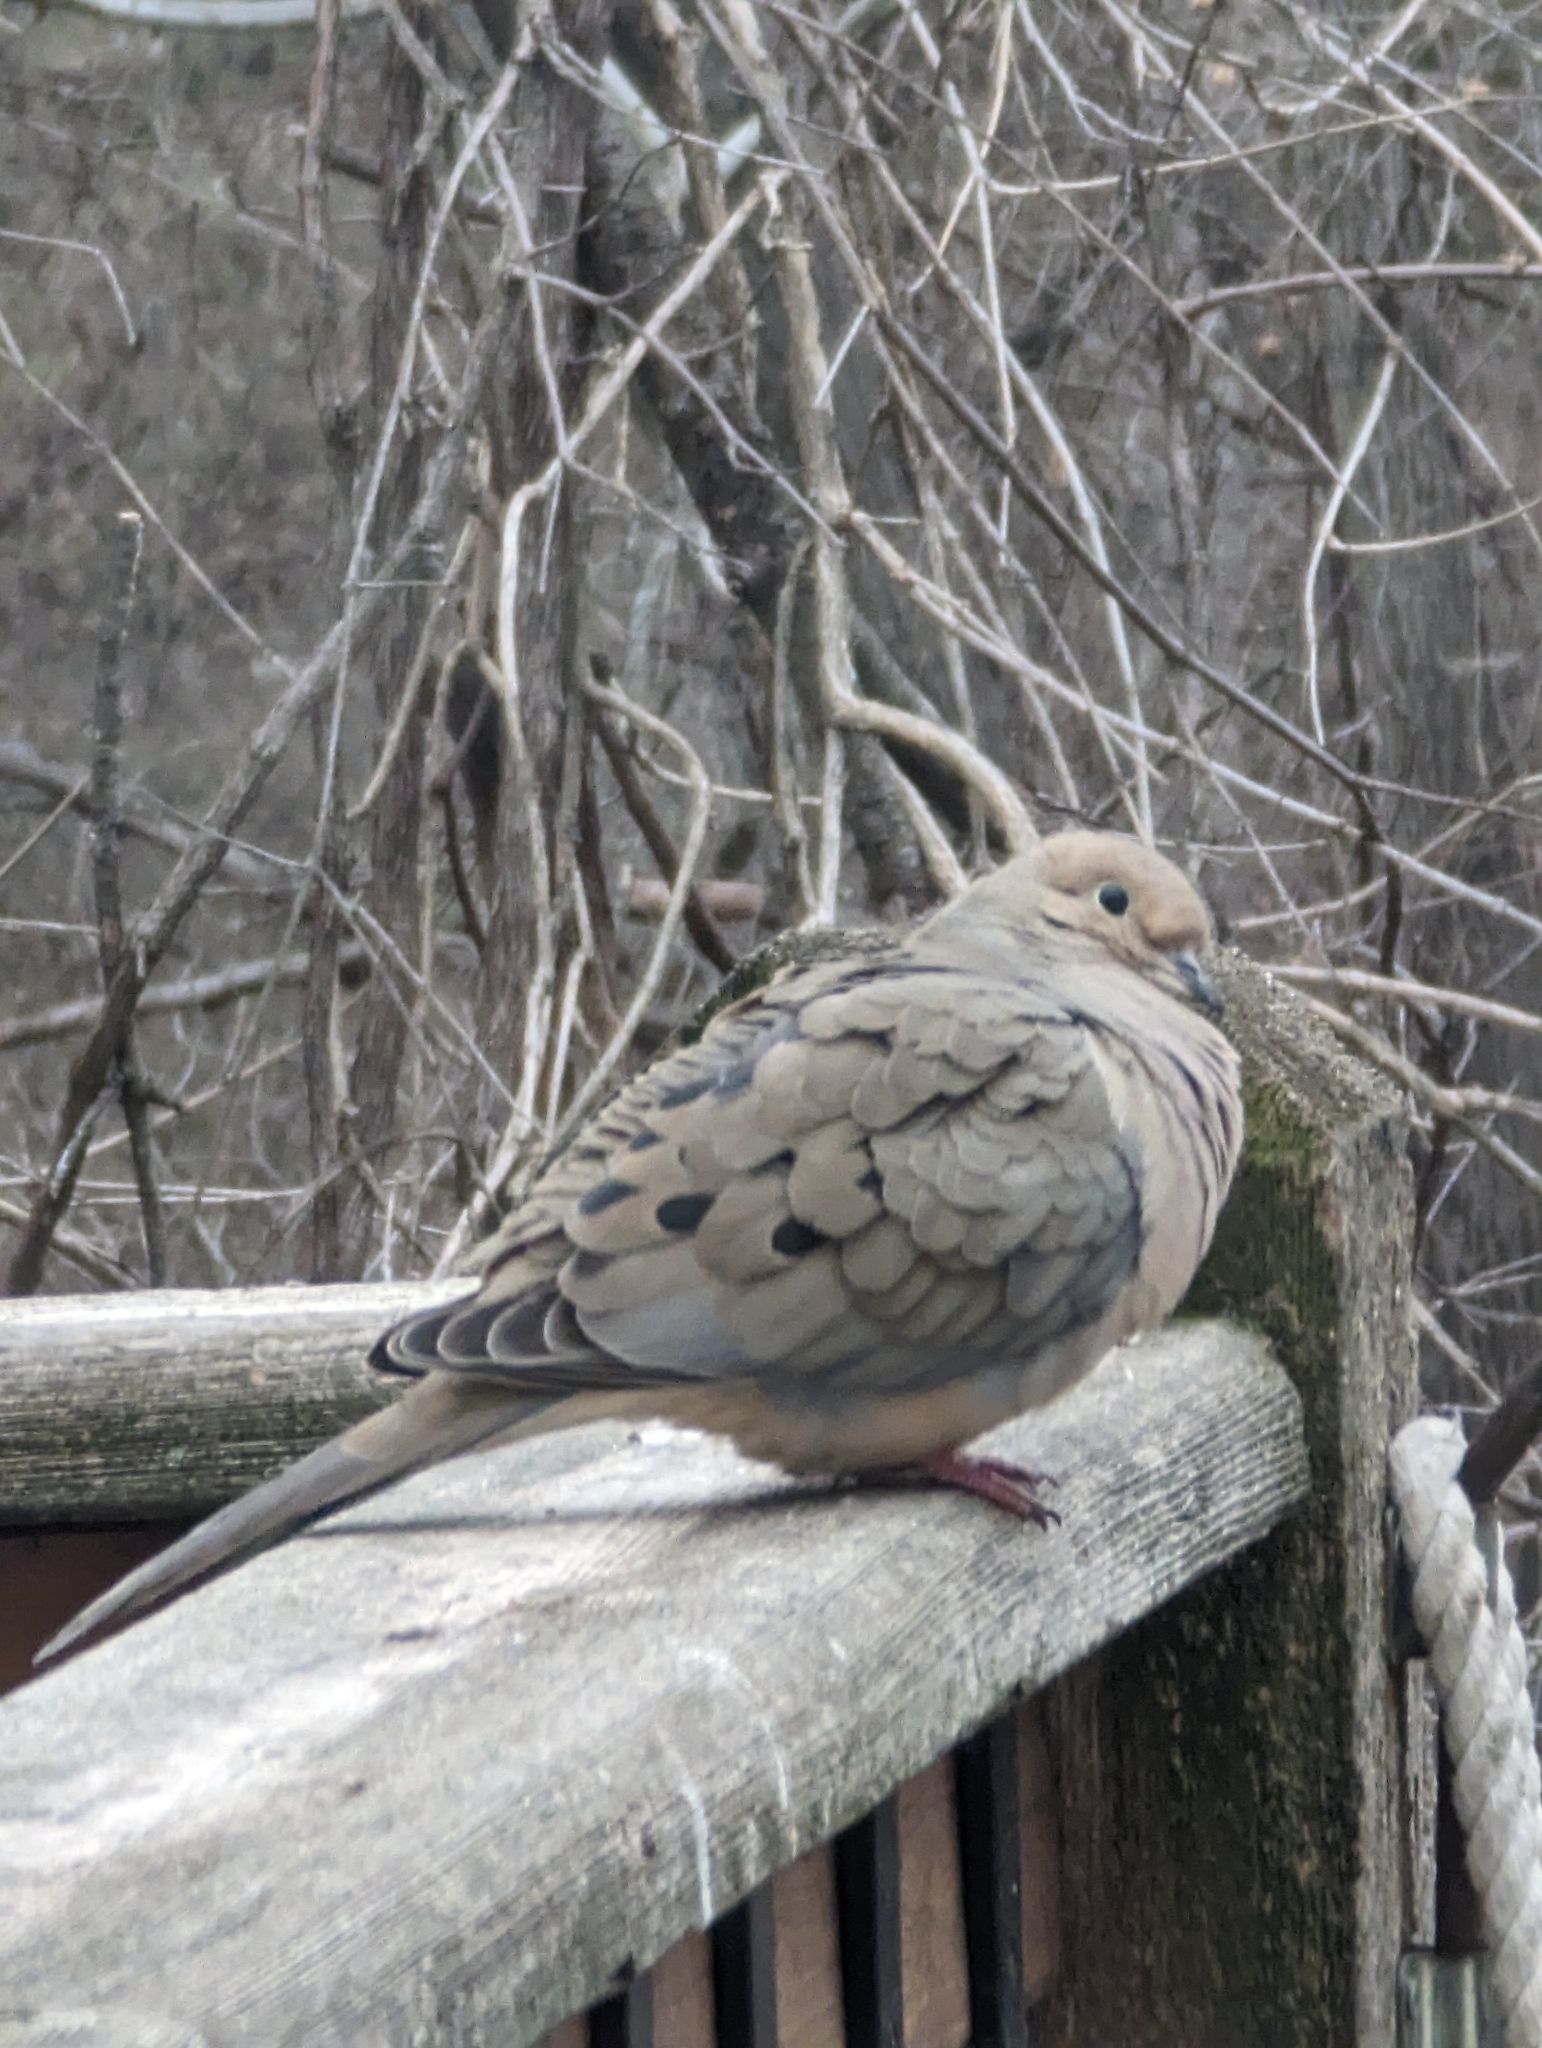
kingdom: Animalia
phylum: Chordata
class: Aves
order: Columbiformes
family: Columbidae
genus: Zenaida
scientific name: Zenaida macroura
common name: Mourning dove
